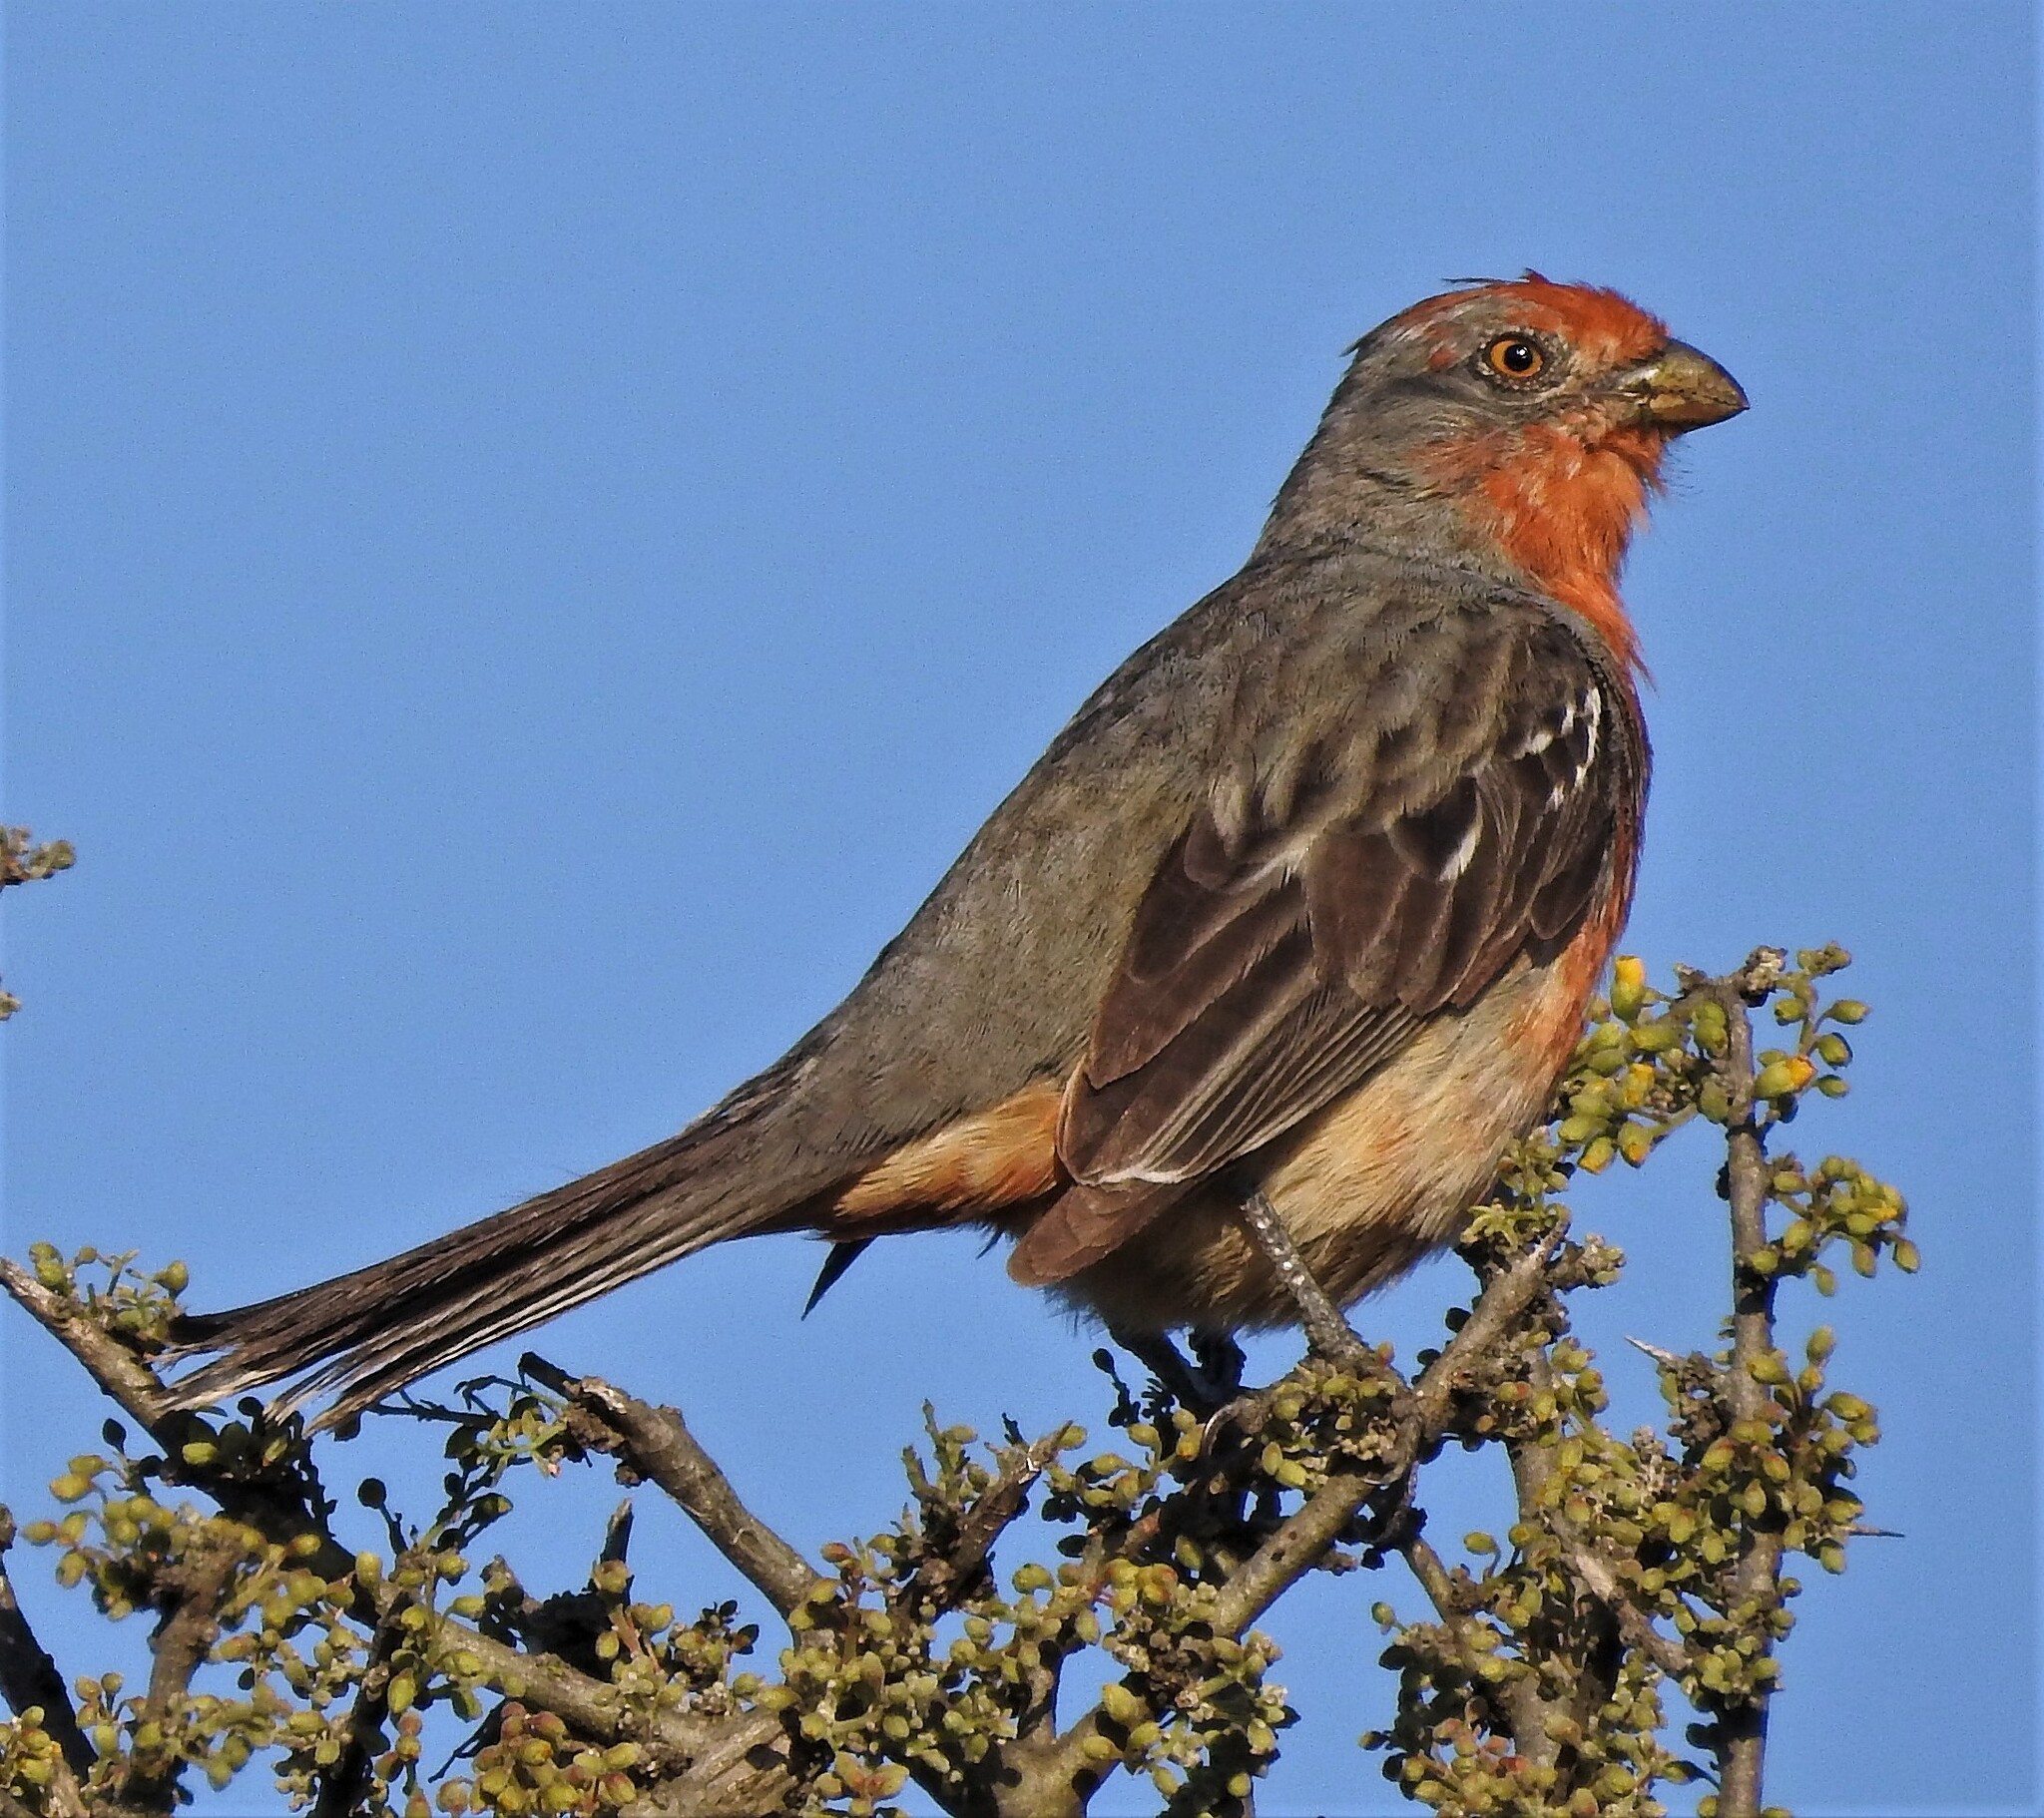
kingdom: Animalia
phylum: Chordata
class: Aves
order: Passeriformes
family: Cotingidae
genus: Phytotoma
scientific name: Phytotoma rutila
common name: White-tipped plantcutter
